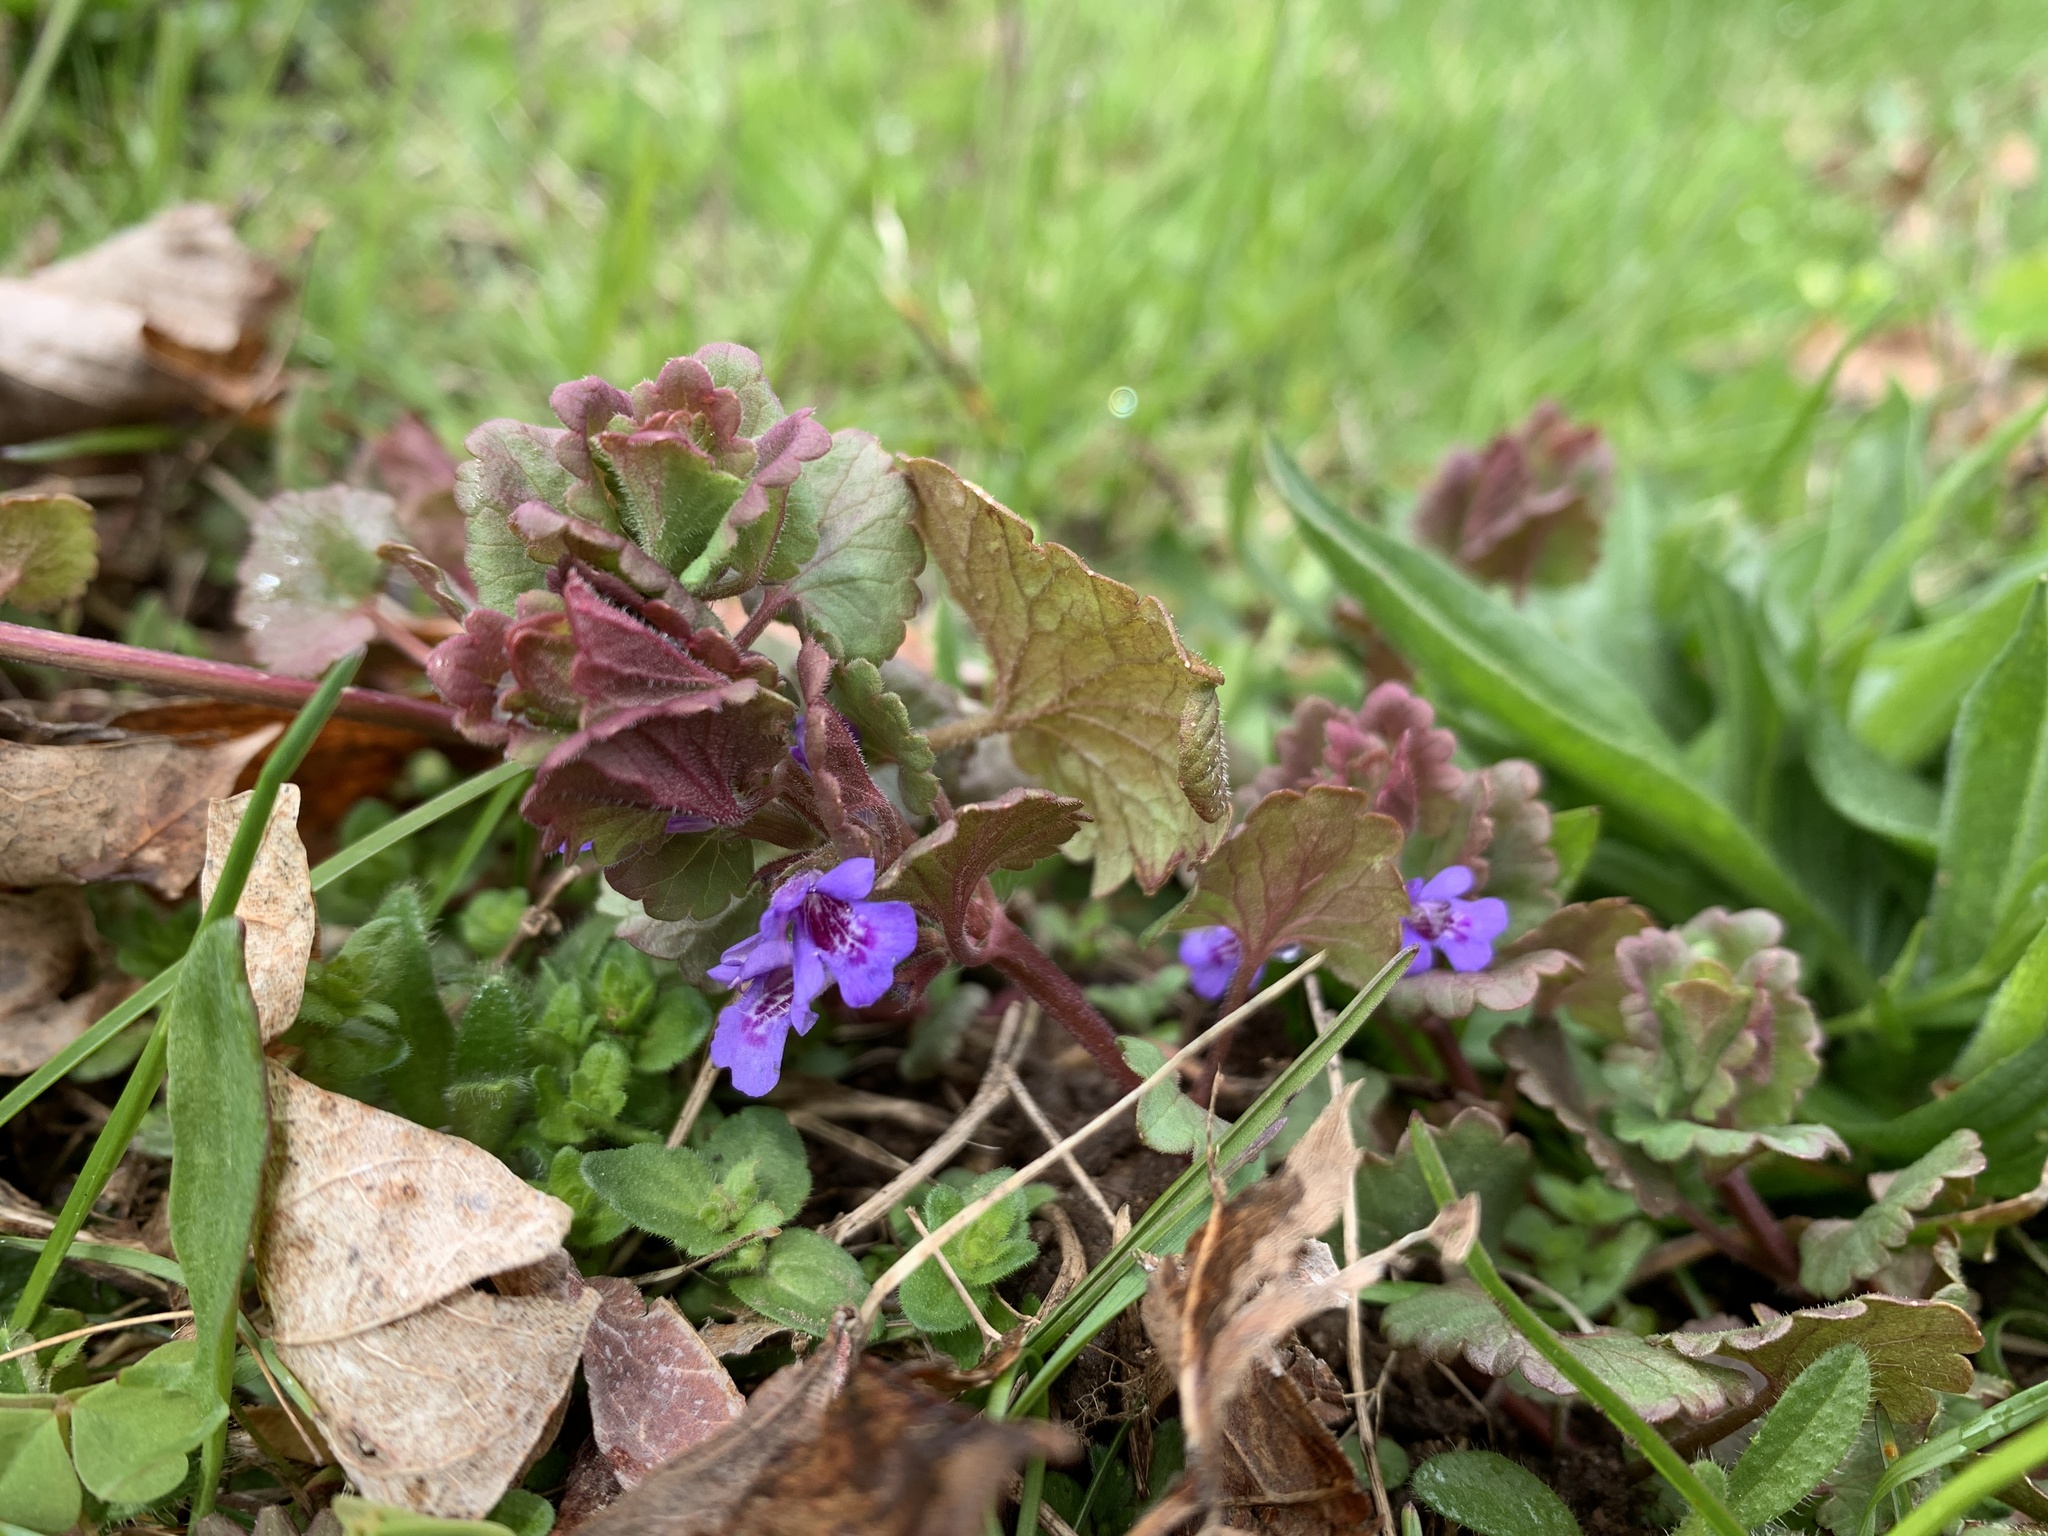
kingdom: Plantae
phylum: Tracheophyta
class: Magnoliopsida
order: Lamiales
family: Lamiaceae
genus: Glechoma
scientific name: Glechoma hederacea
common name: Ground ivy
